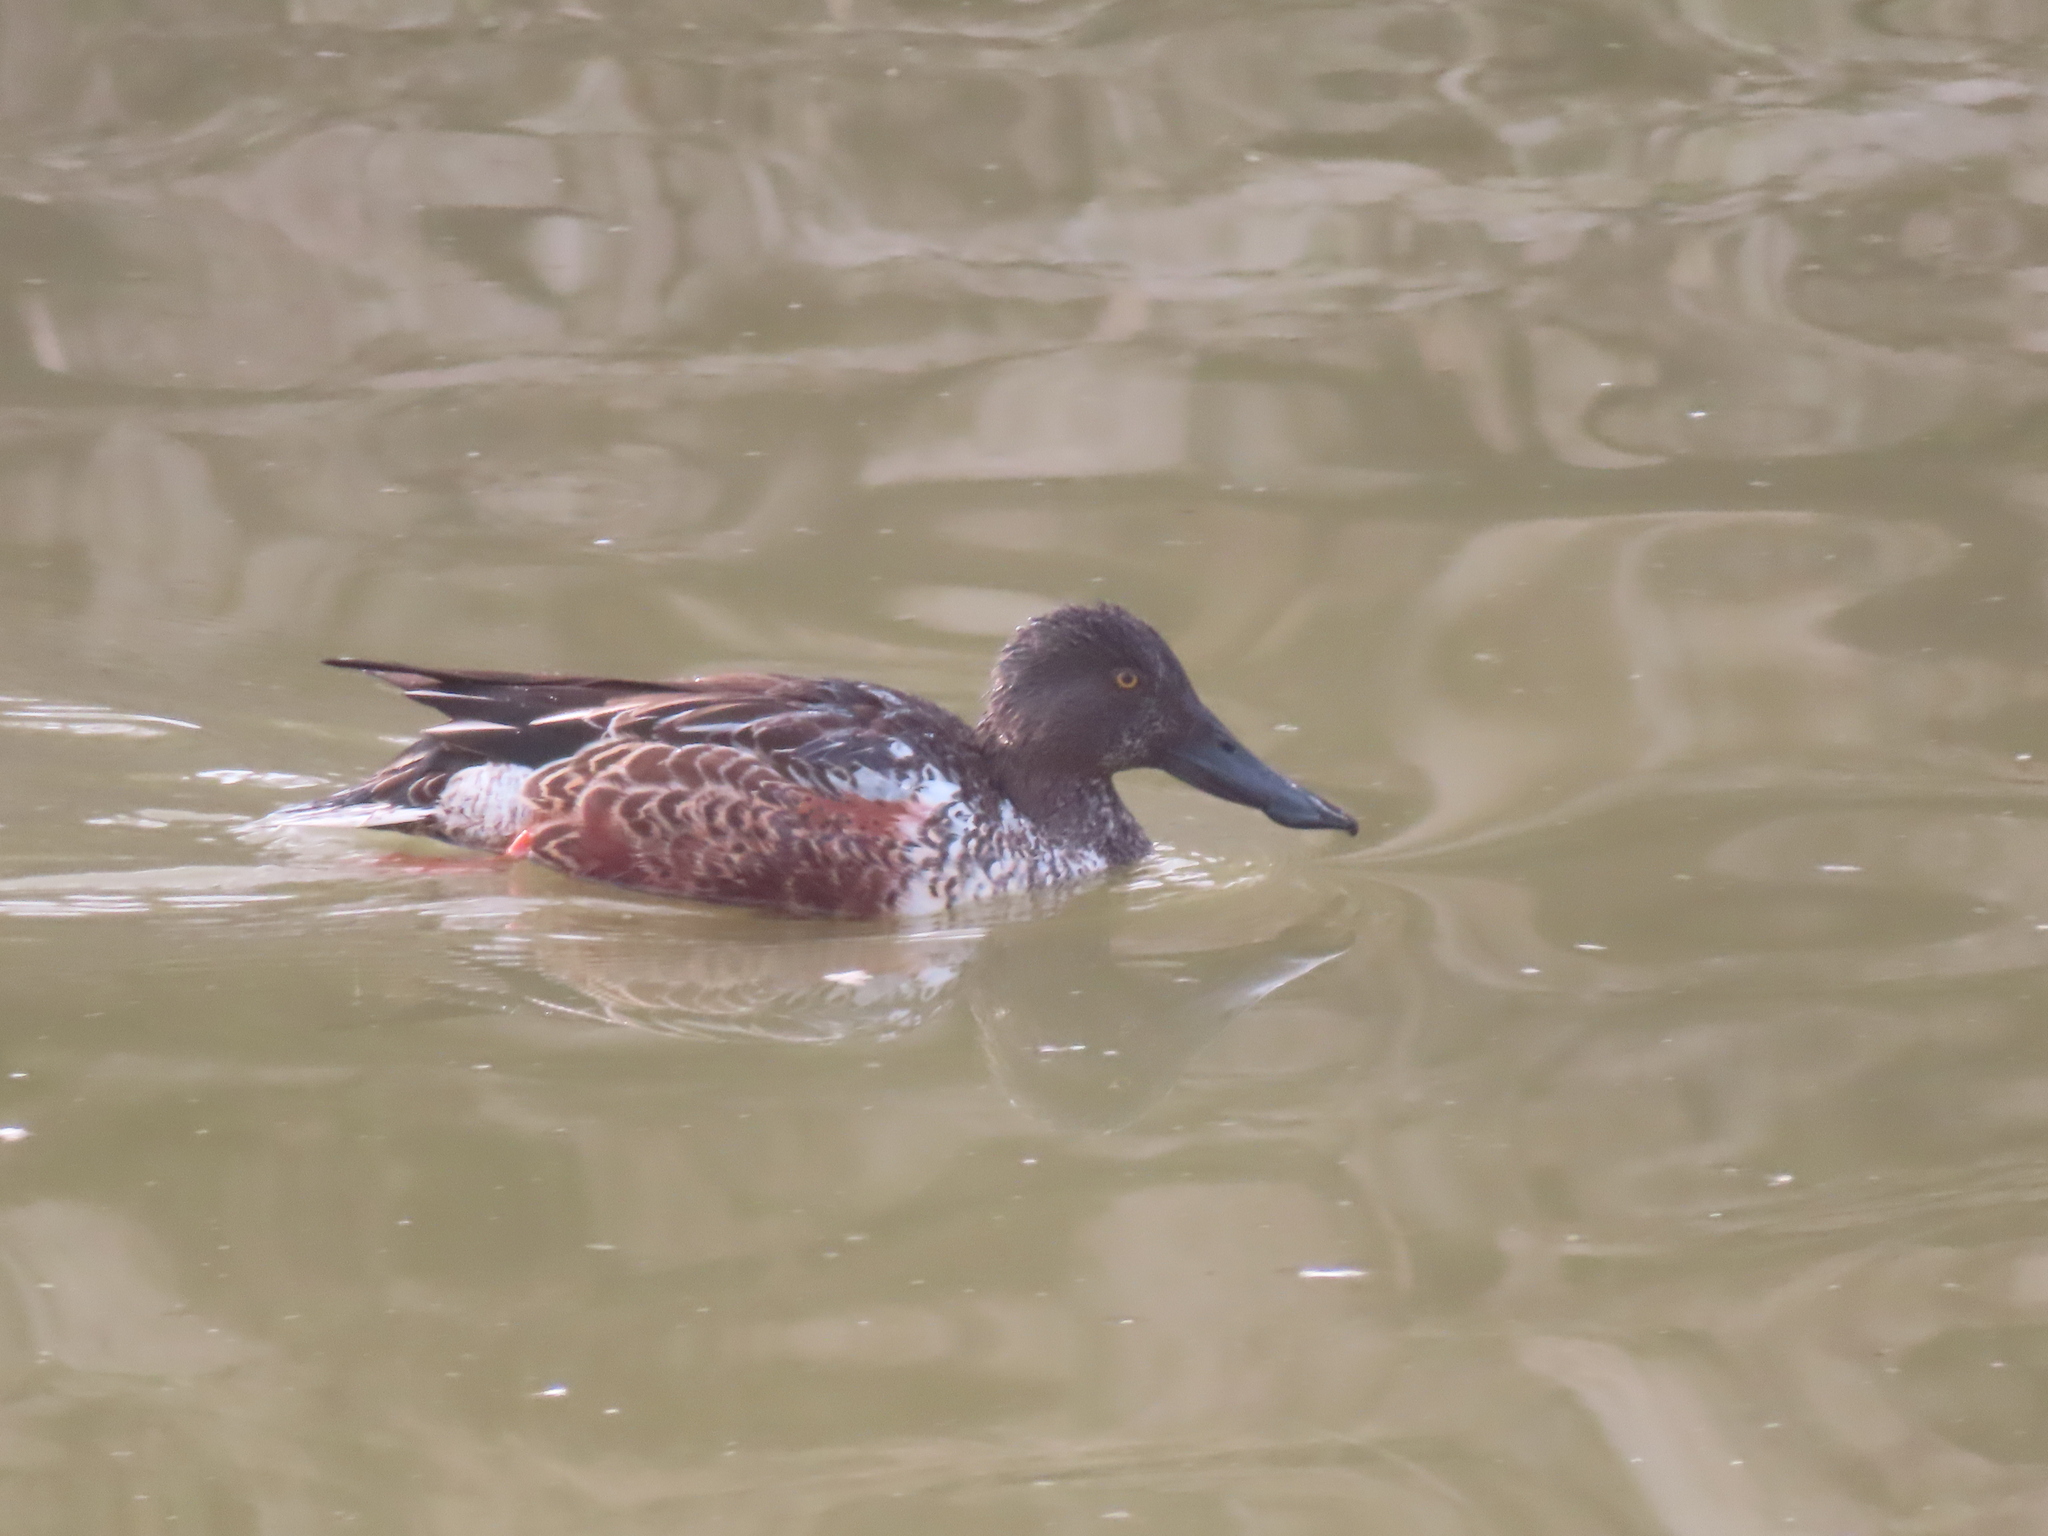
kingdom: Animalia
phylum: Chordata
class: Aves
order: Anseriformes
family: Anatidae
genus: Spatula
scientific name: Spatula clypeata
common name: Northern shoveler
